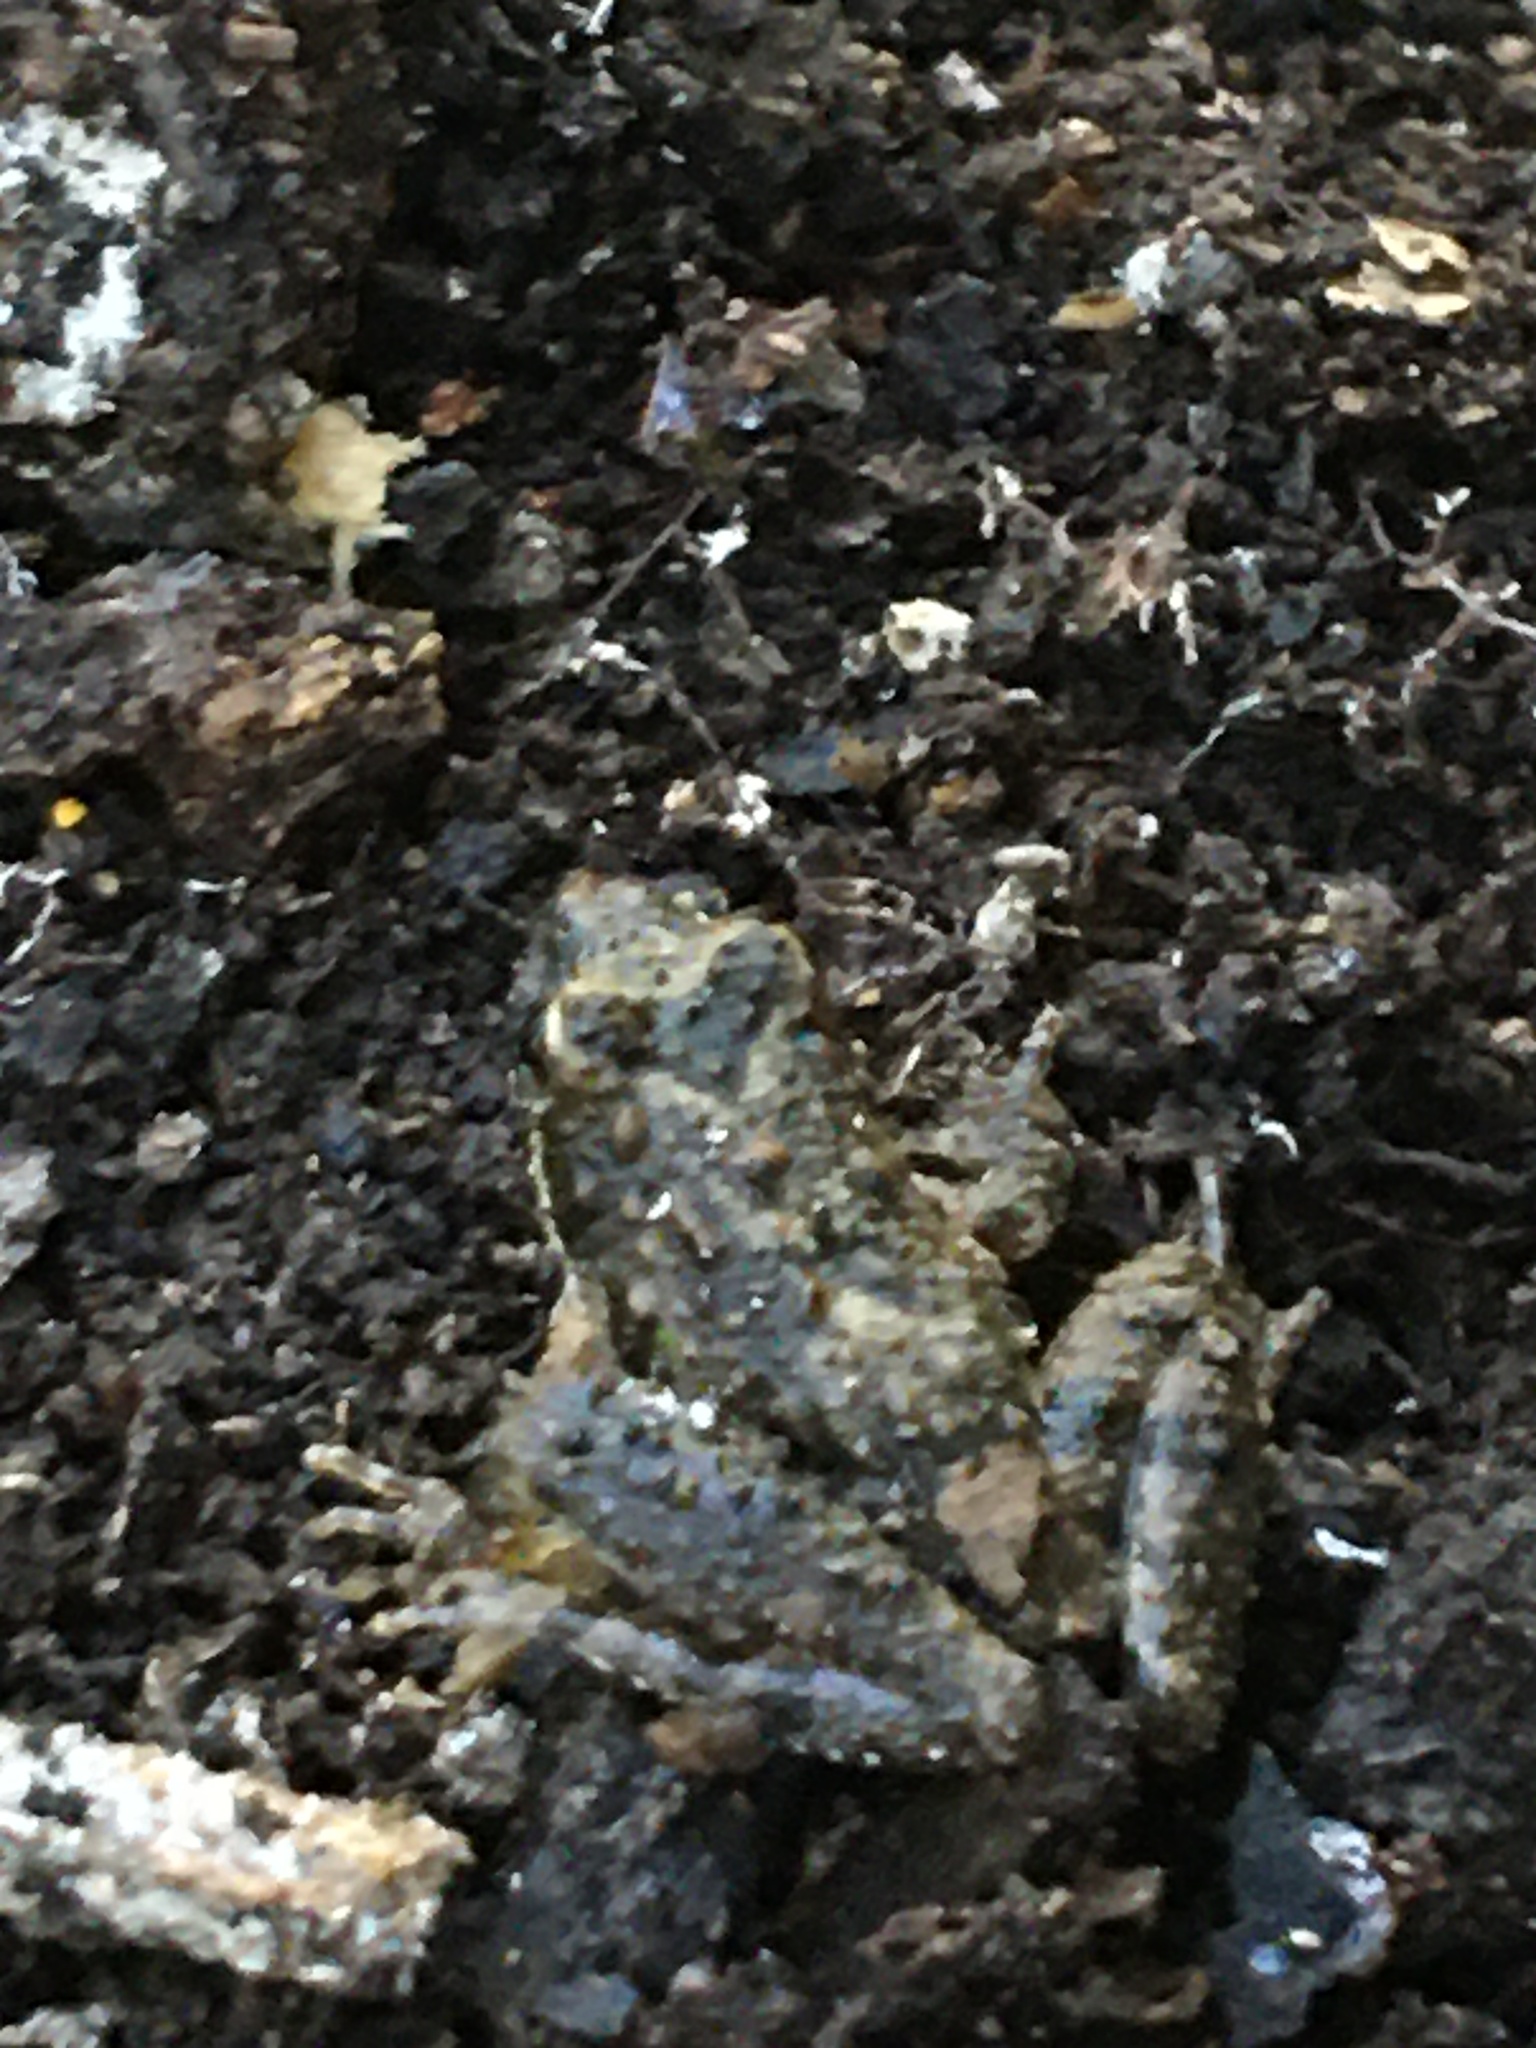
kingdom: Animalia
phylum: Chordata
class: Amphibia
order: Anura
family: Hylidae
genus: Acris
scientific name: Acris blanchardi
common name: Blanchard's cricket frog
